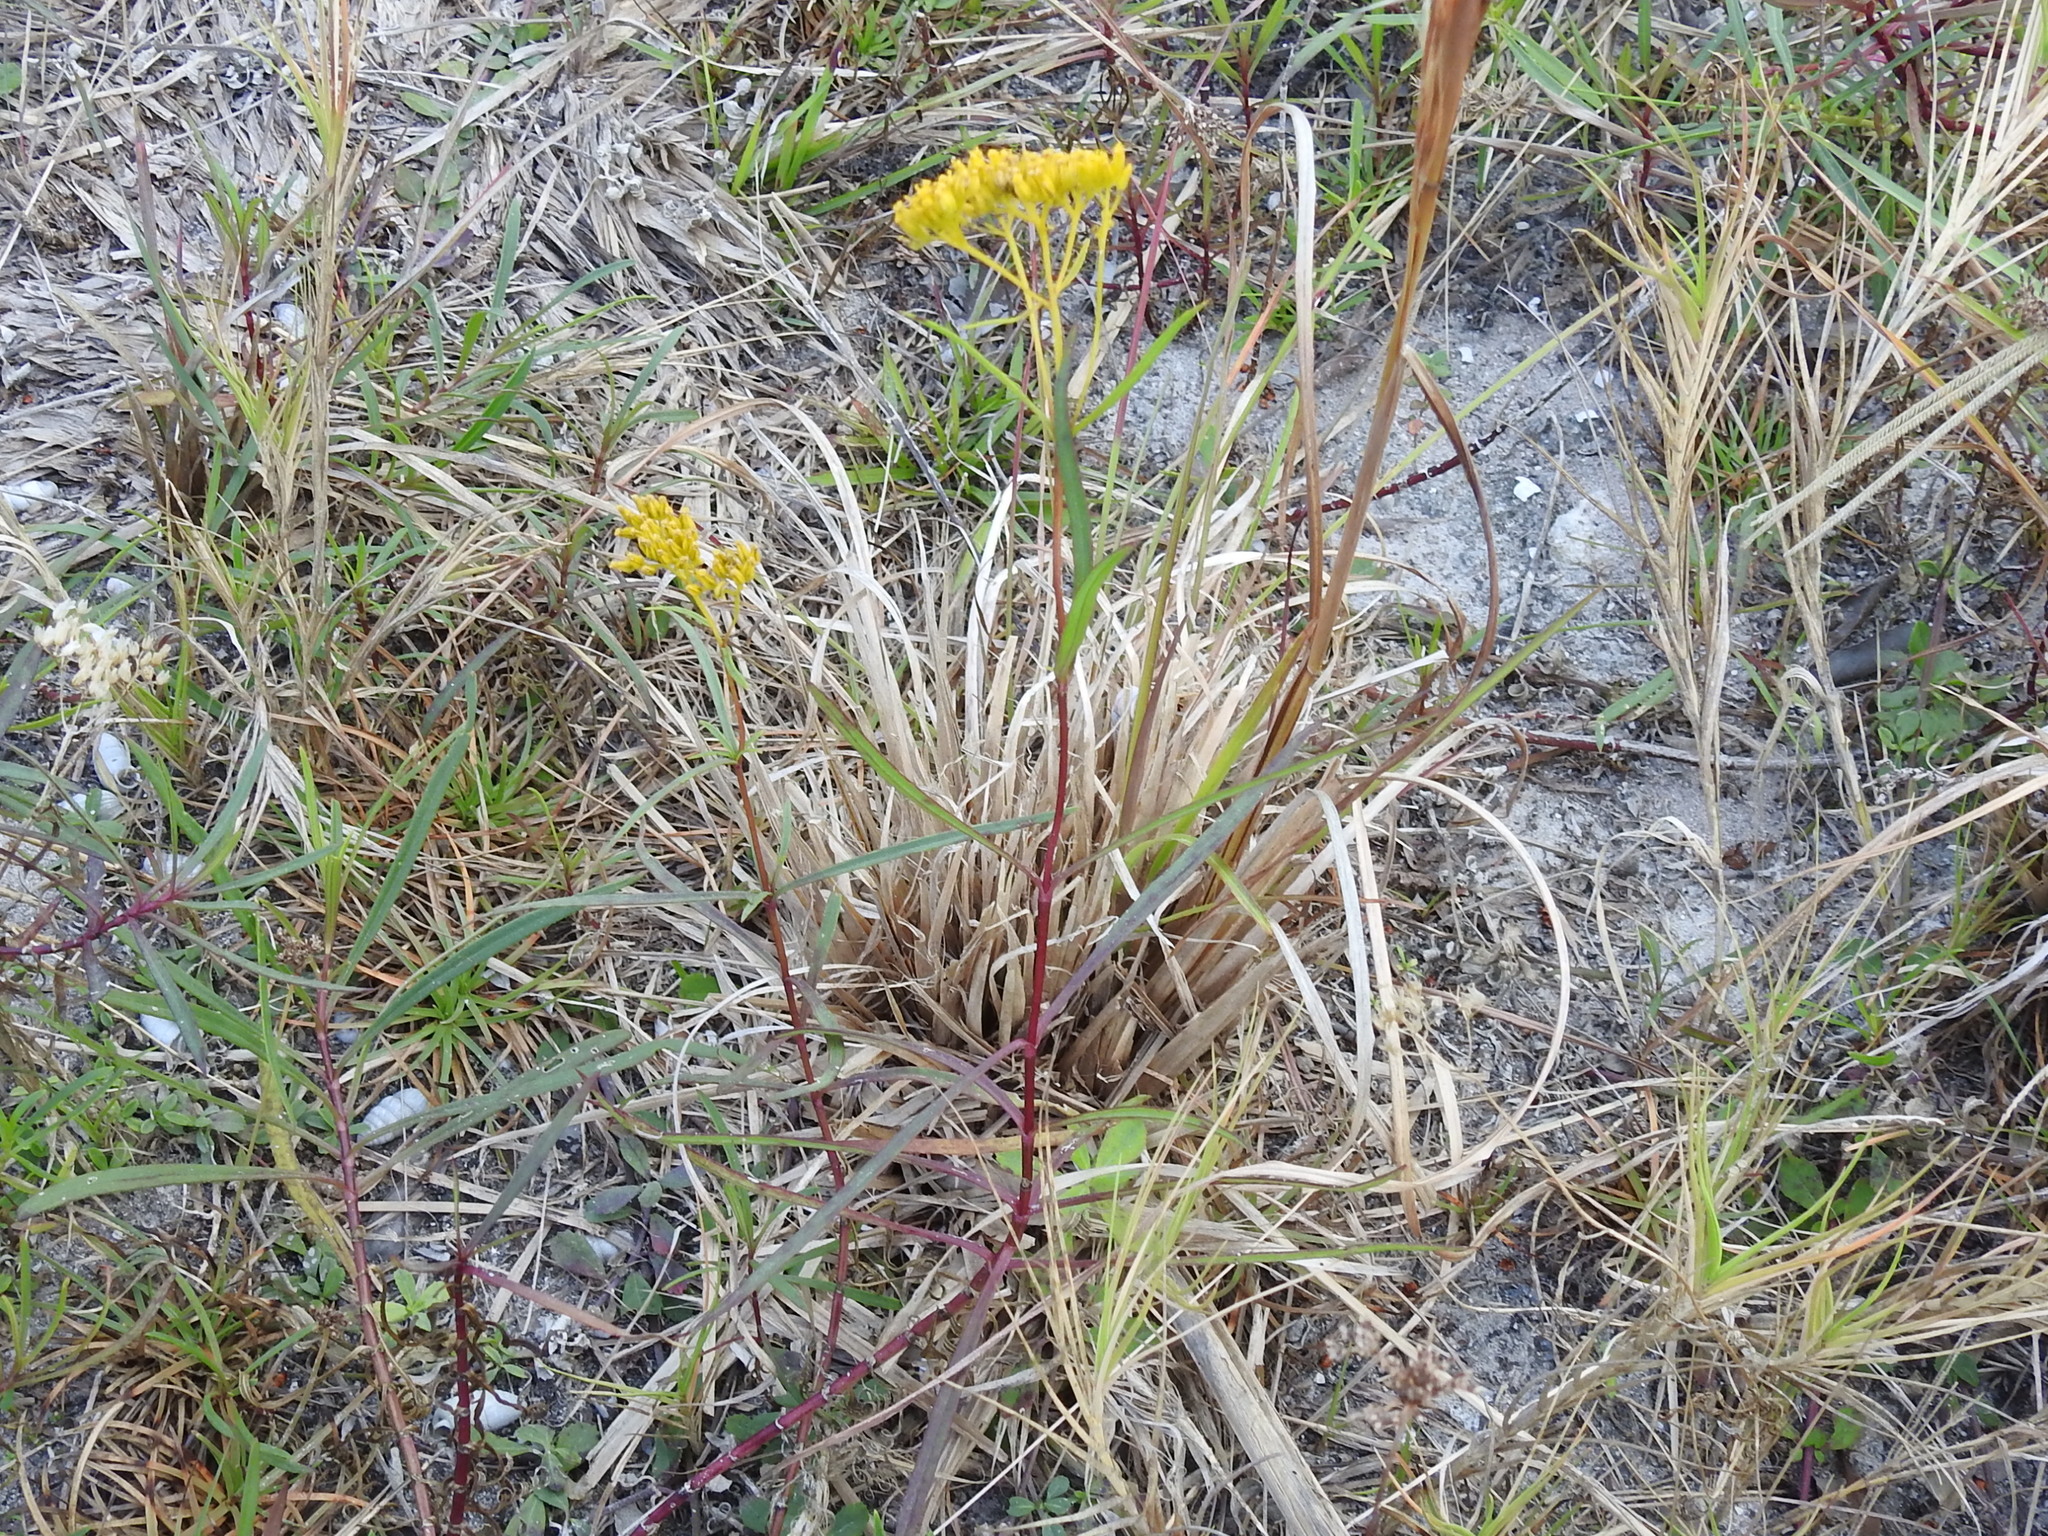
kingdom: Plantae
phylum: Tracheophyta
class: Magnoliopsida
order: Asterales
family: Asteraceae
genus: Flaveria
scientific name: Flaveria linearis
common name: Yellowtop
